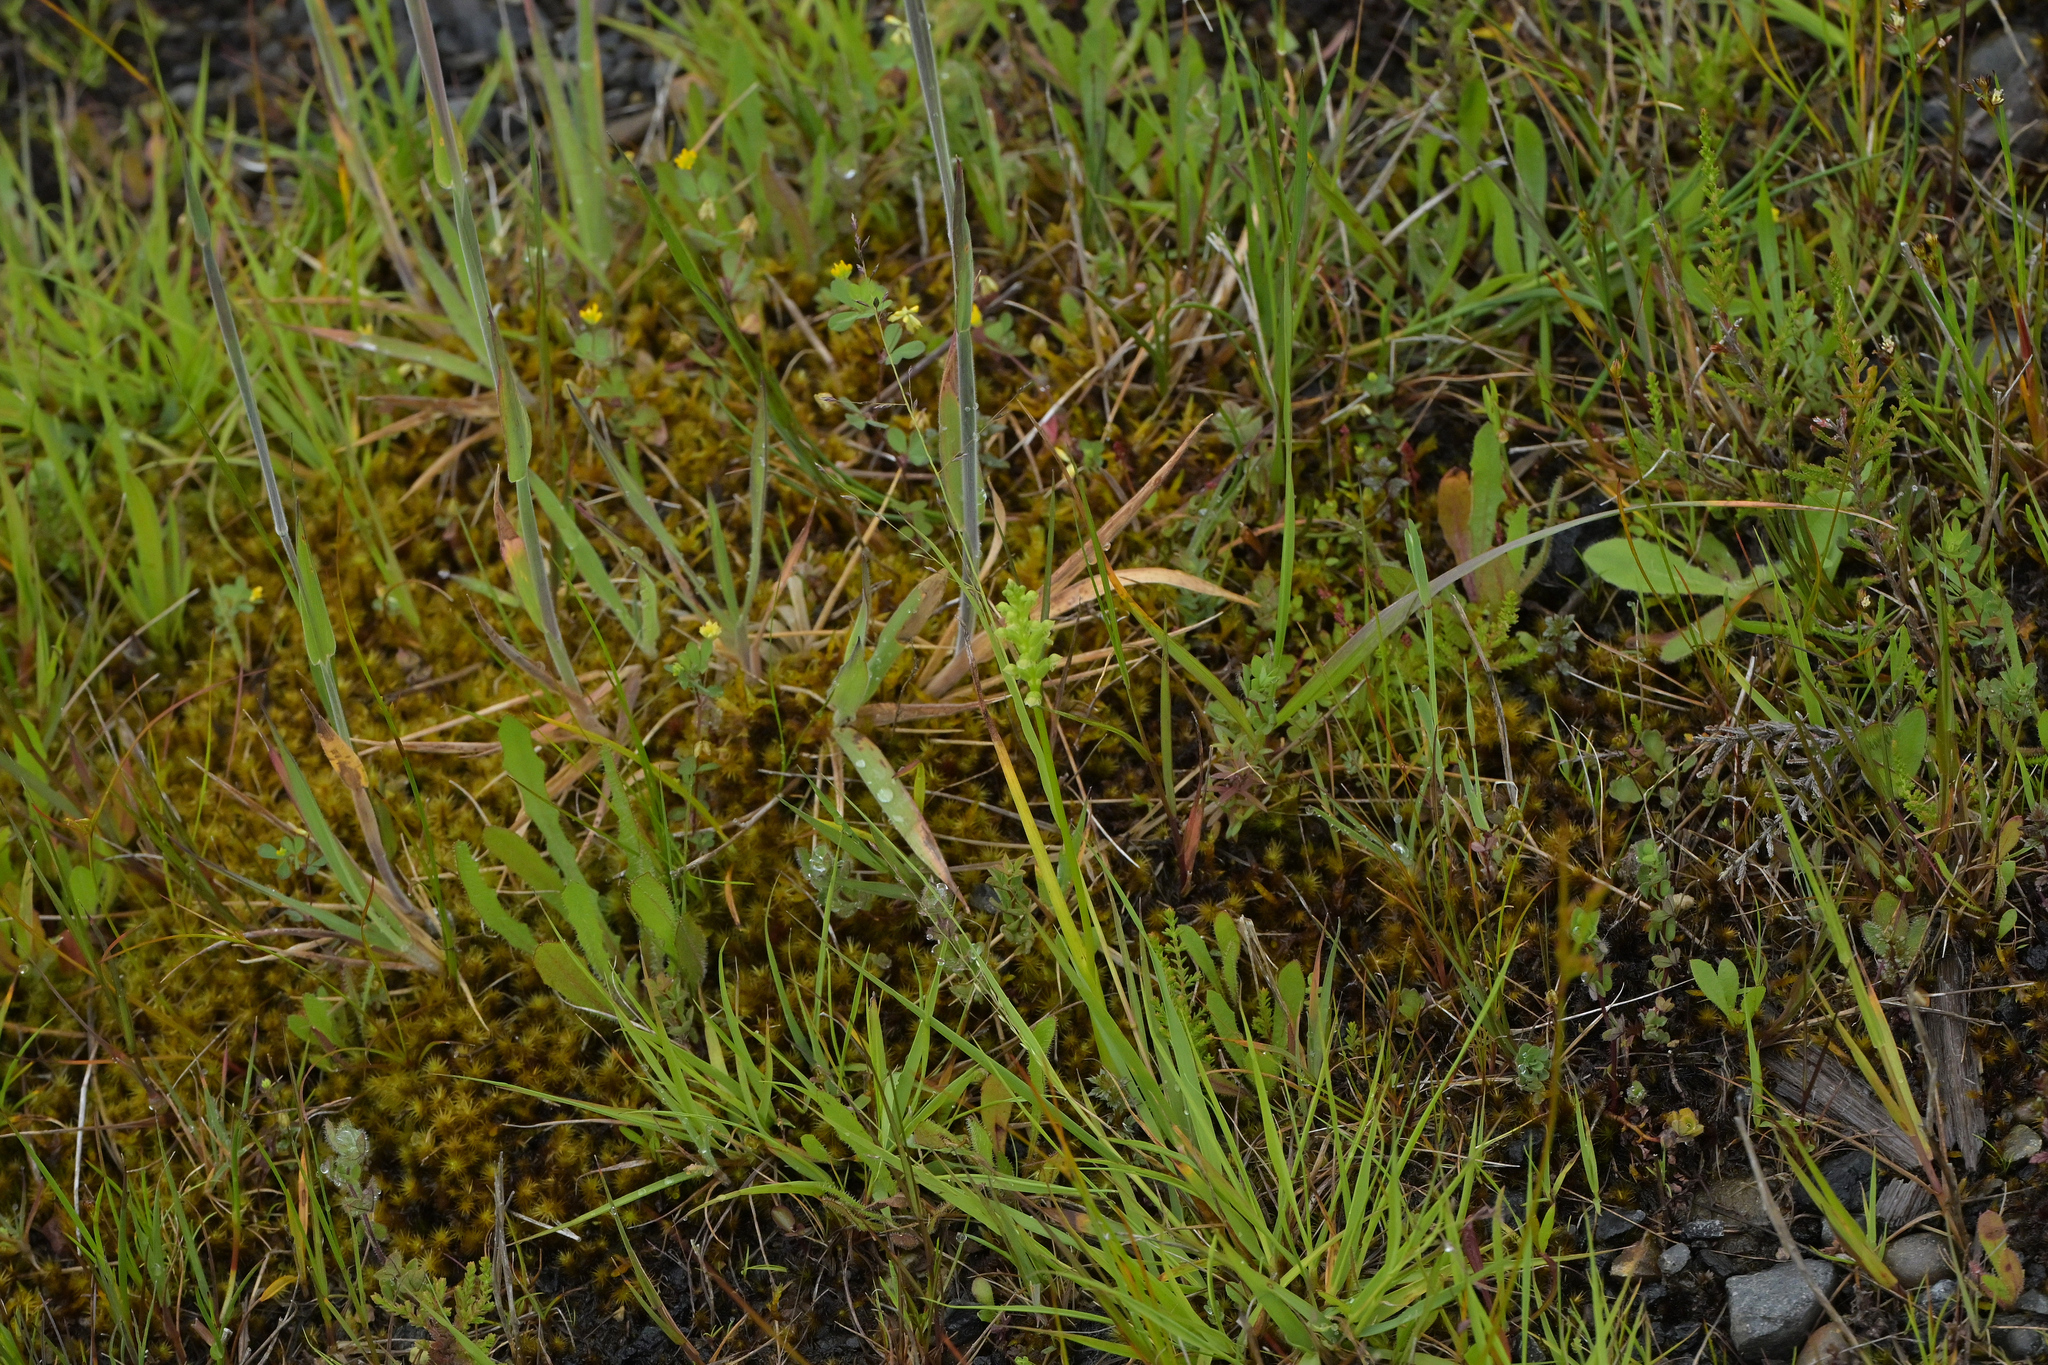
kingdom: Plantae
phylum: Tracheophyta
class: Liliopsida
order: Asparagales
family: Orchidaceae
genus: Microtis
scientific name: Microtis unifolia
